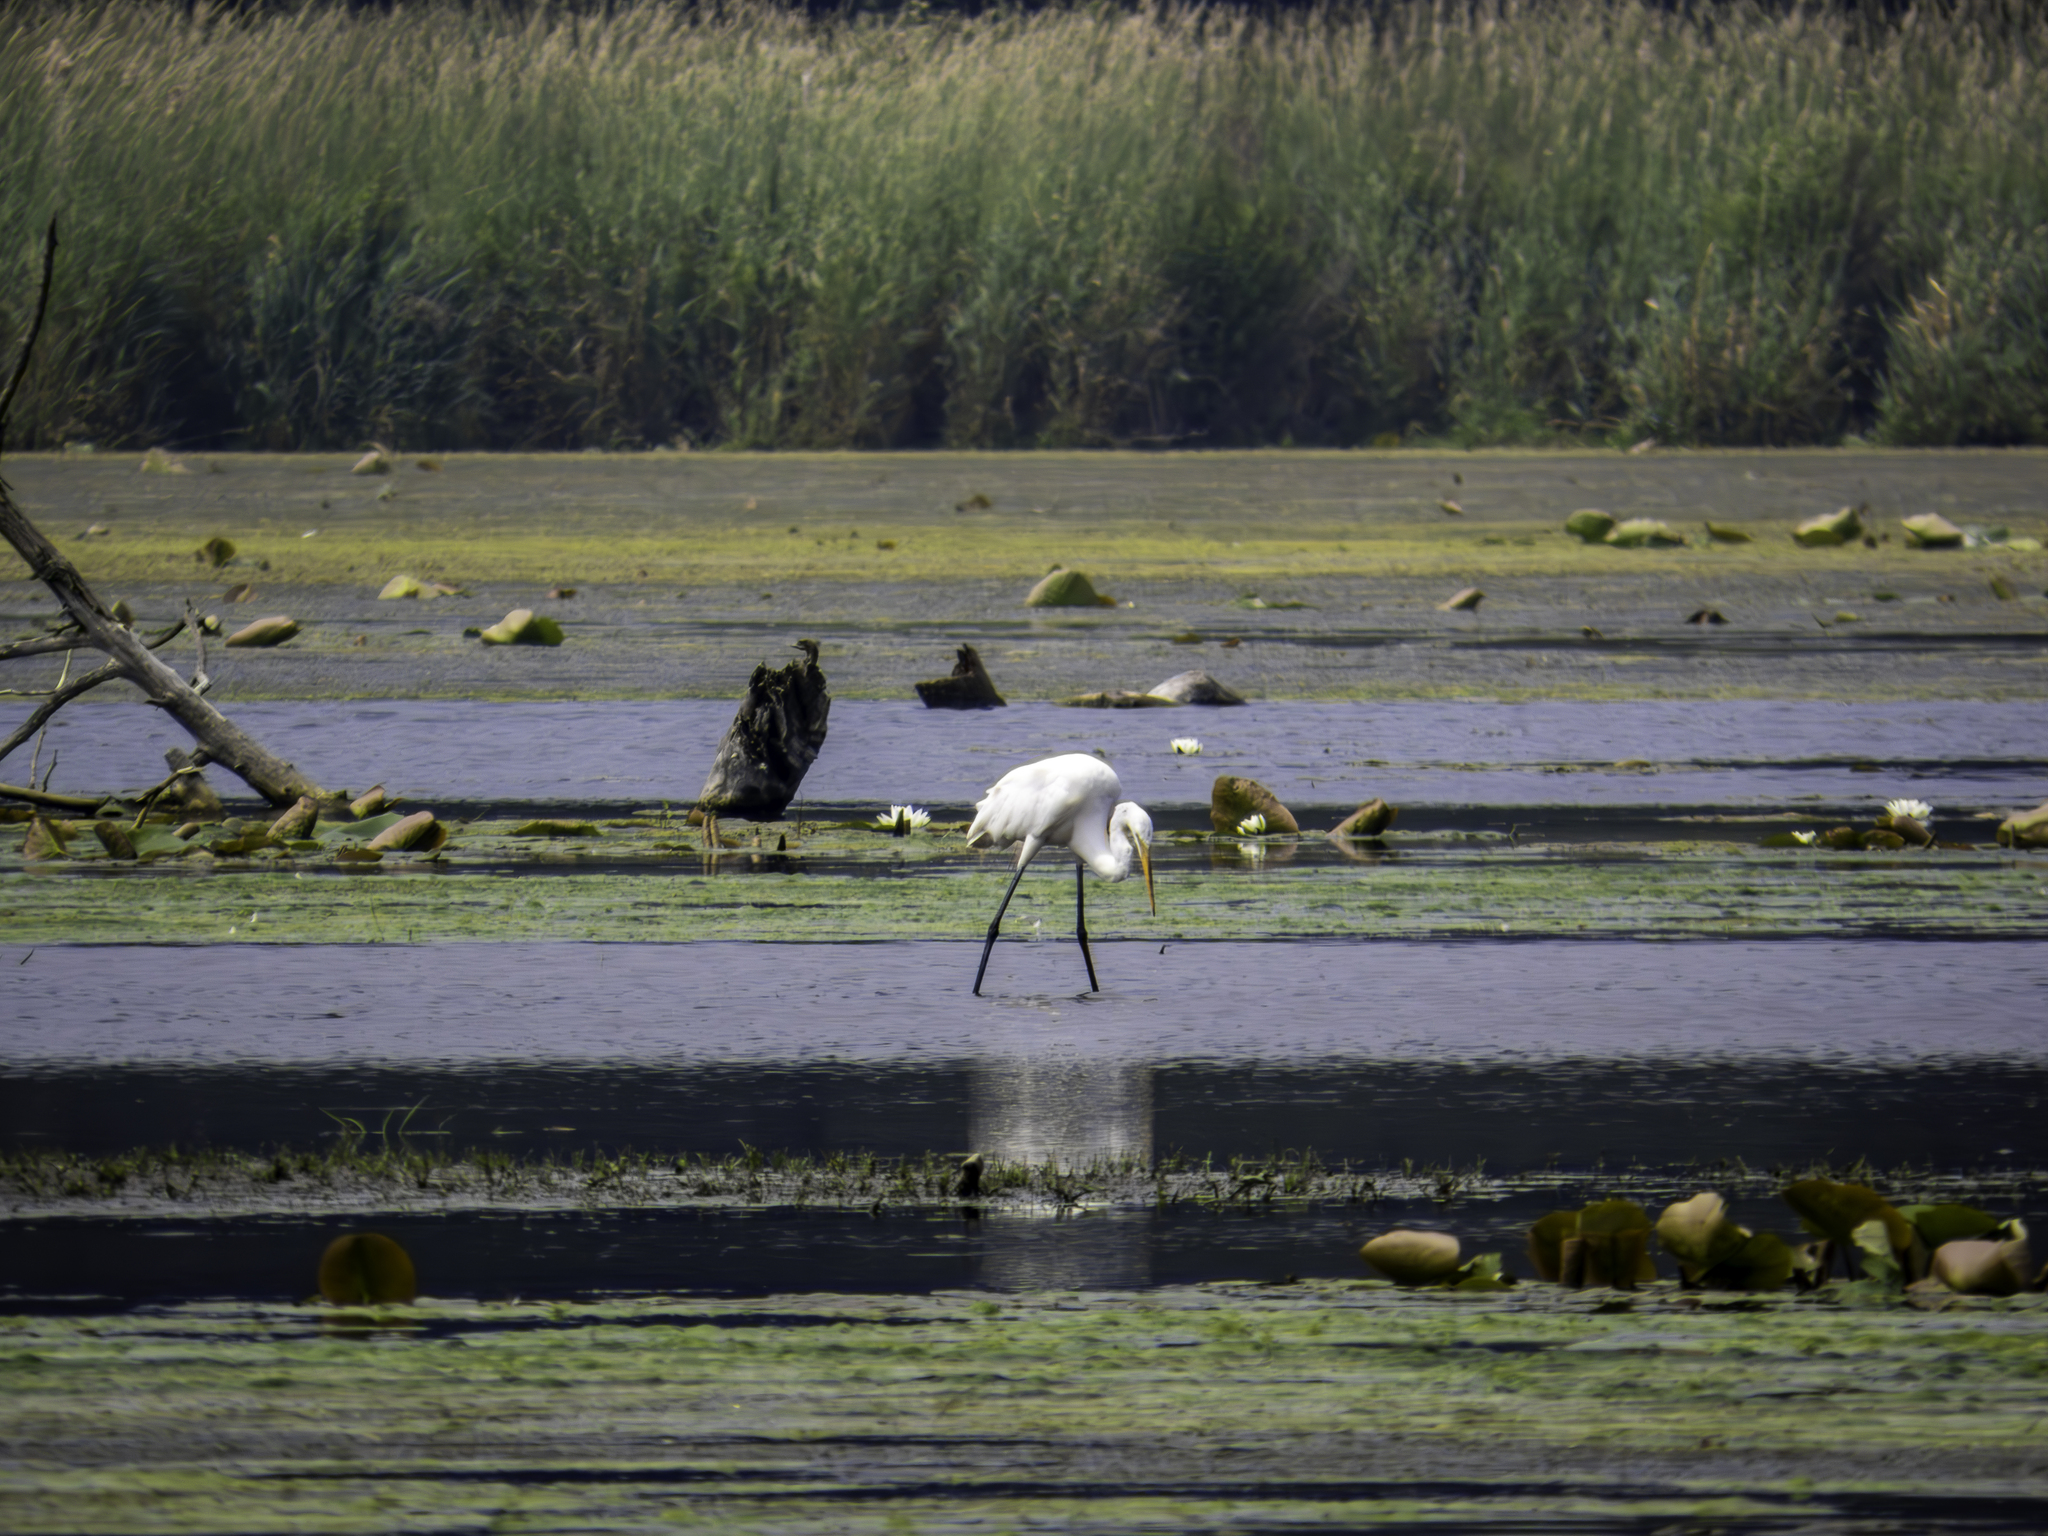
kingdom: Animalia
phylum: Chordata
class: Aves
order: Pelecaniformes
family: Ardeidae
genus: Ardea
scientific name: Ardea alba
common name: Great egret
